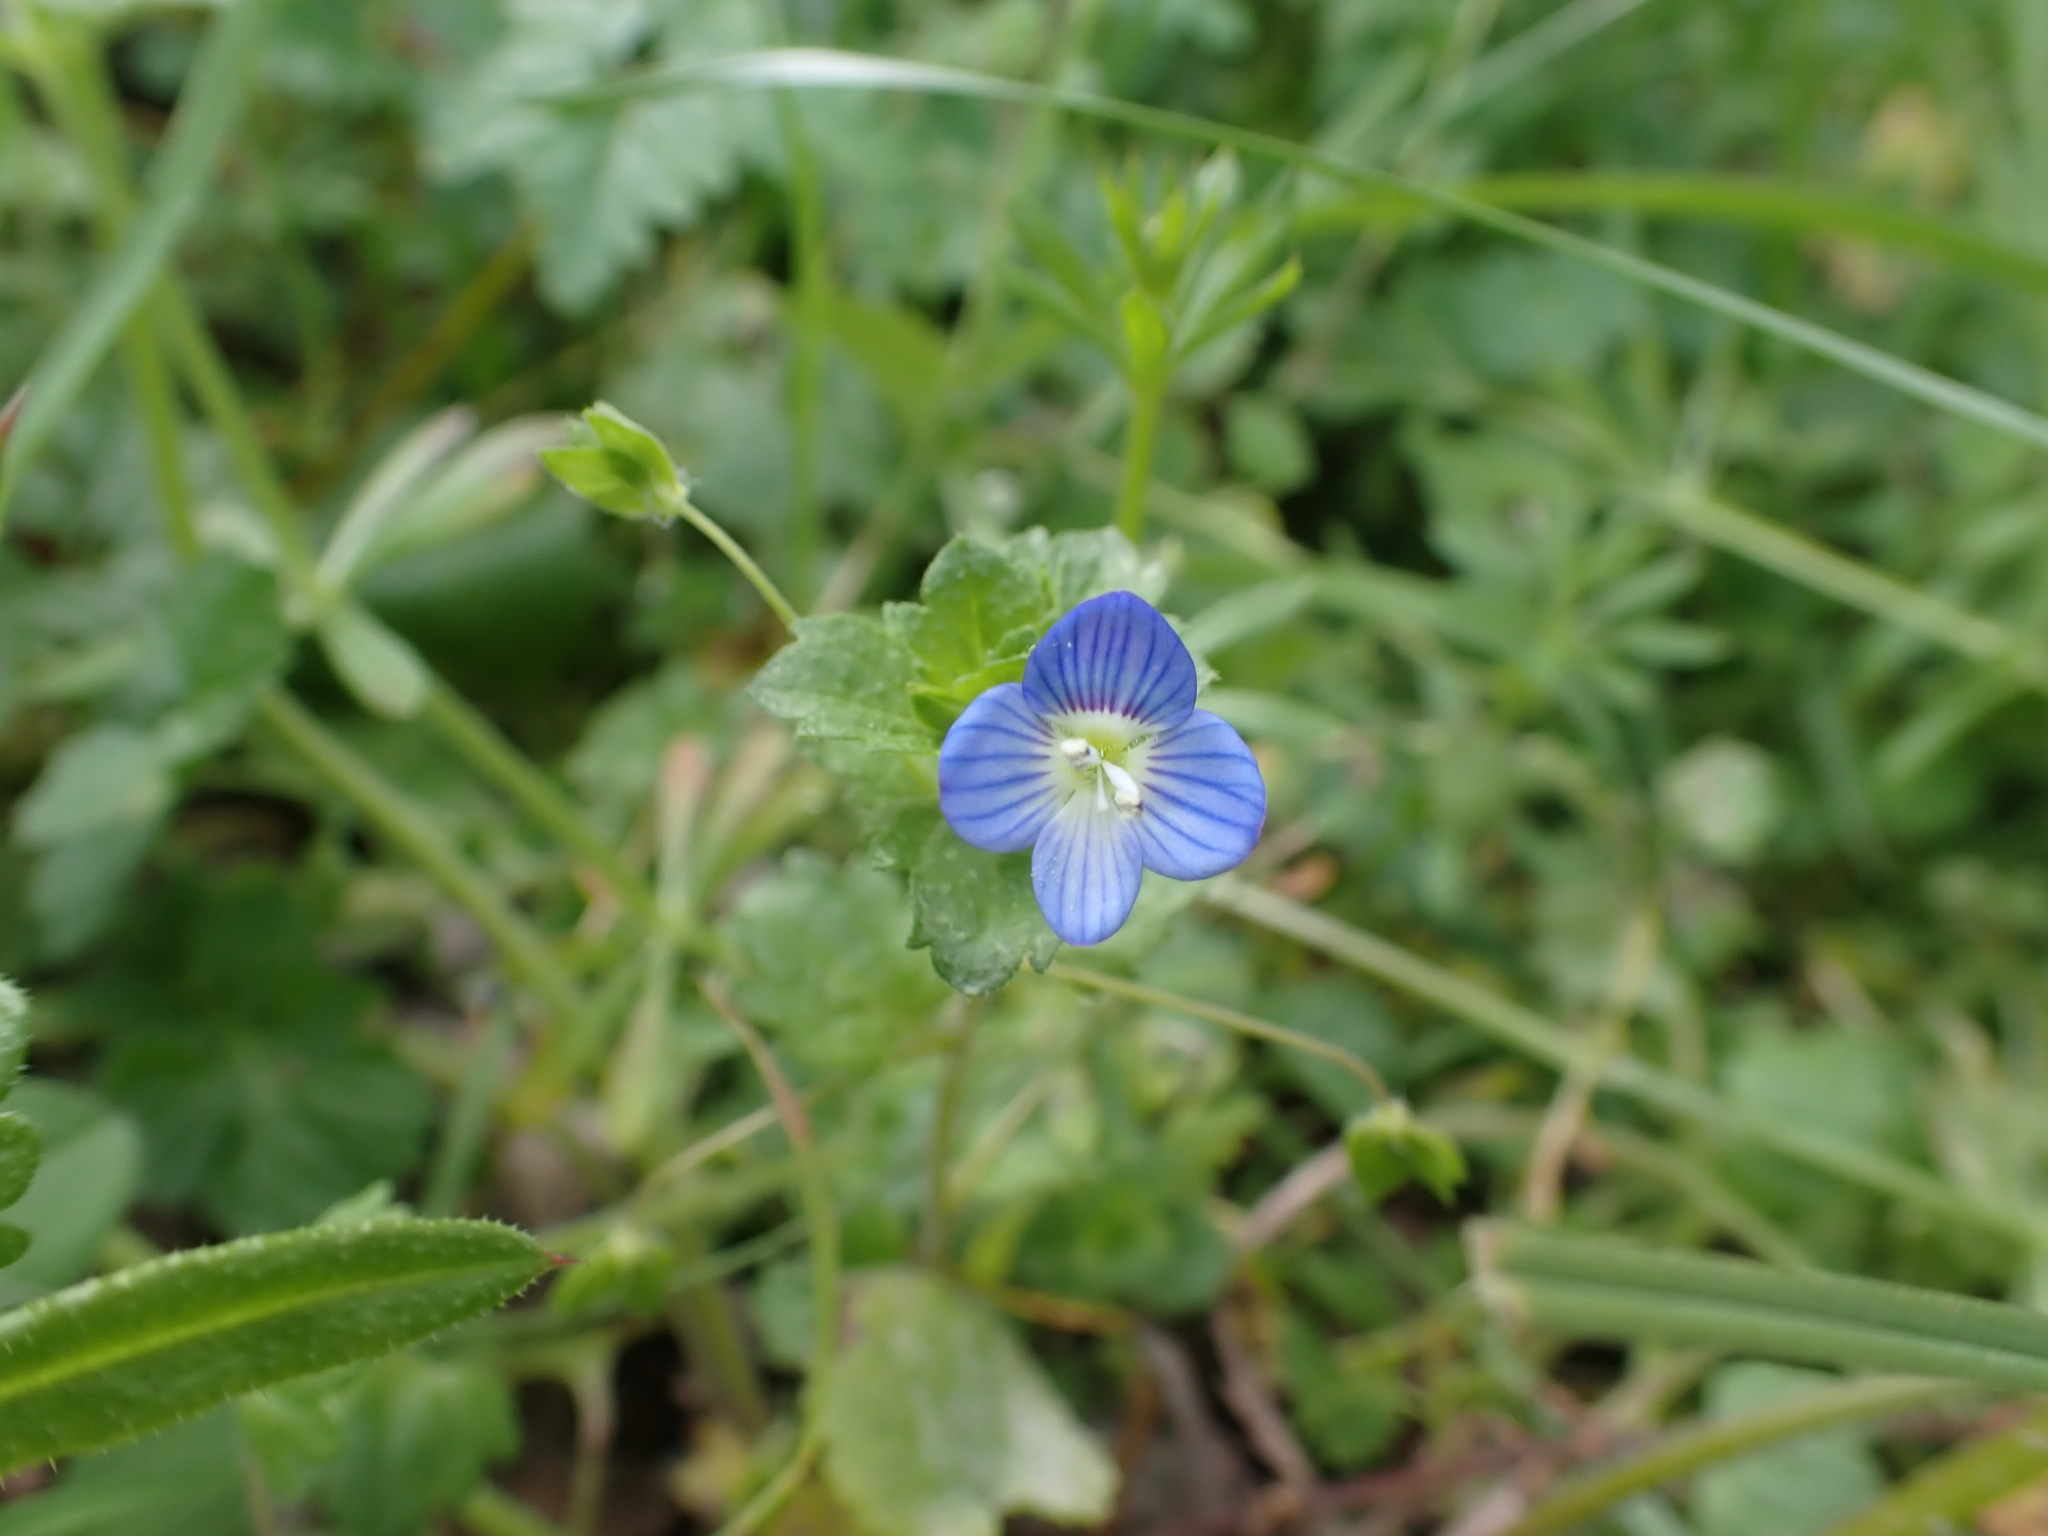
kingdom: Plantae
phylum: Tracheophyta
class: Magnoliopsida
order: Lamiales
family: Plantaginaceae
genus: Veronica
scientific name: Veronica persica
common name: Common field-speedwell
